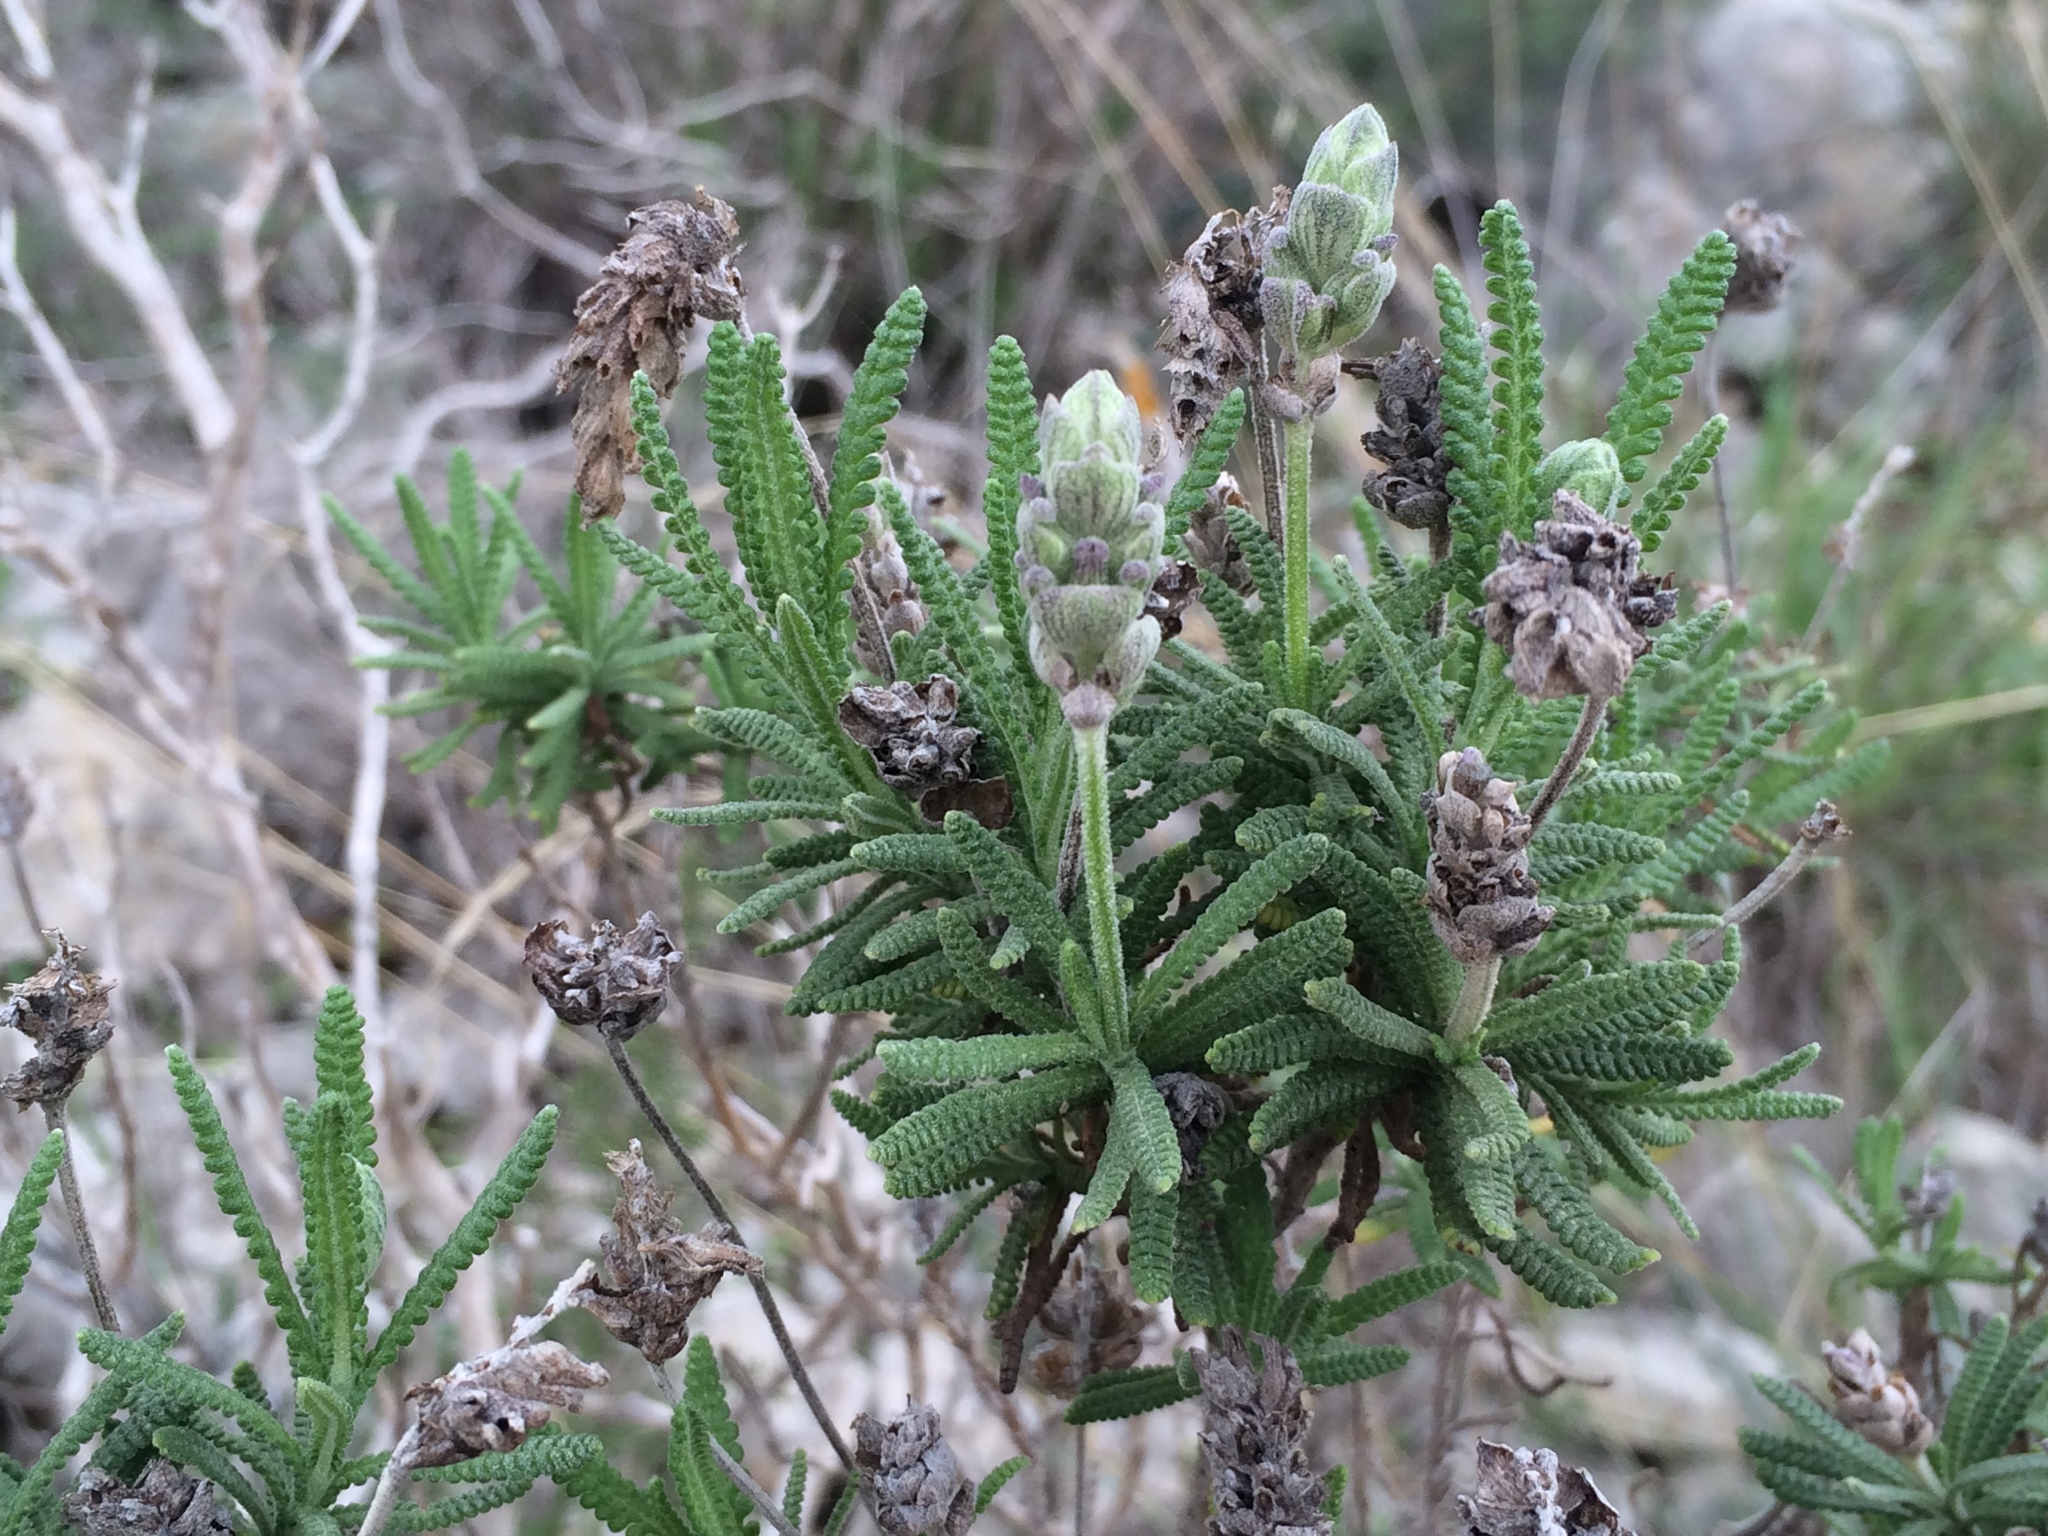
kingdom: Plantae
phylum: Tracheophyta
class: Magnoliopsida
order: Lamiales
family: Lamiaceae
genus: Lavandula
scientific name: Lavandula dentata
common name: French lavender
